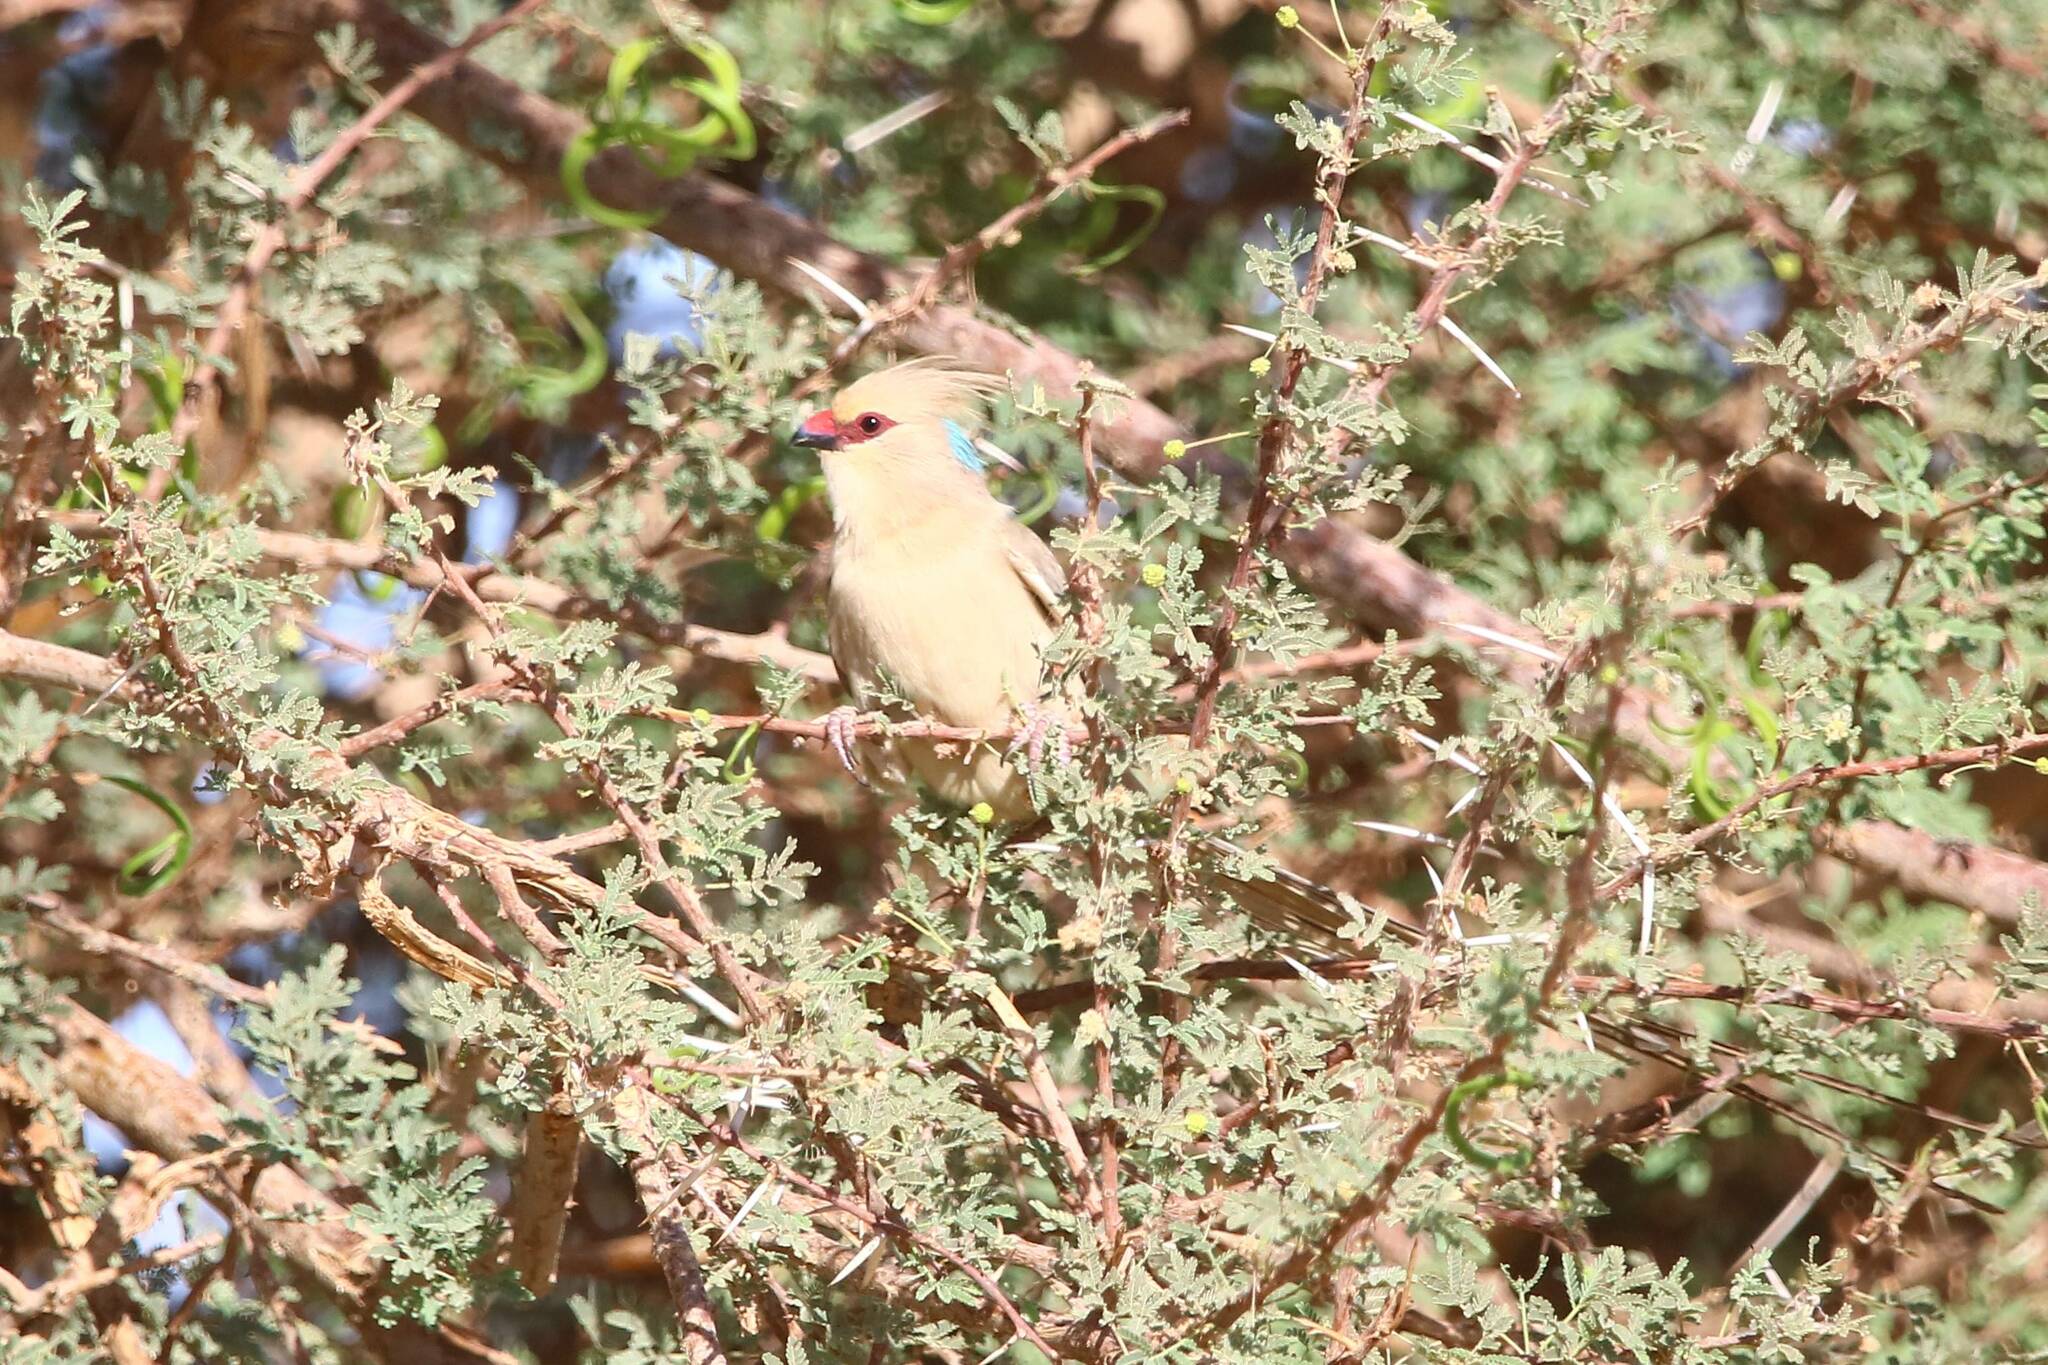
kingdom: Animalia
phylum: Chordata
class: Aves
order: Coliiformes
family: Coliidae
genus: Urocolius
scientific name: Urocolius macrourus
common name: Blue-naped mousebird
